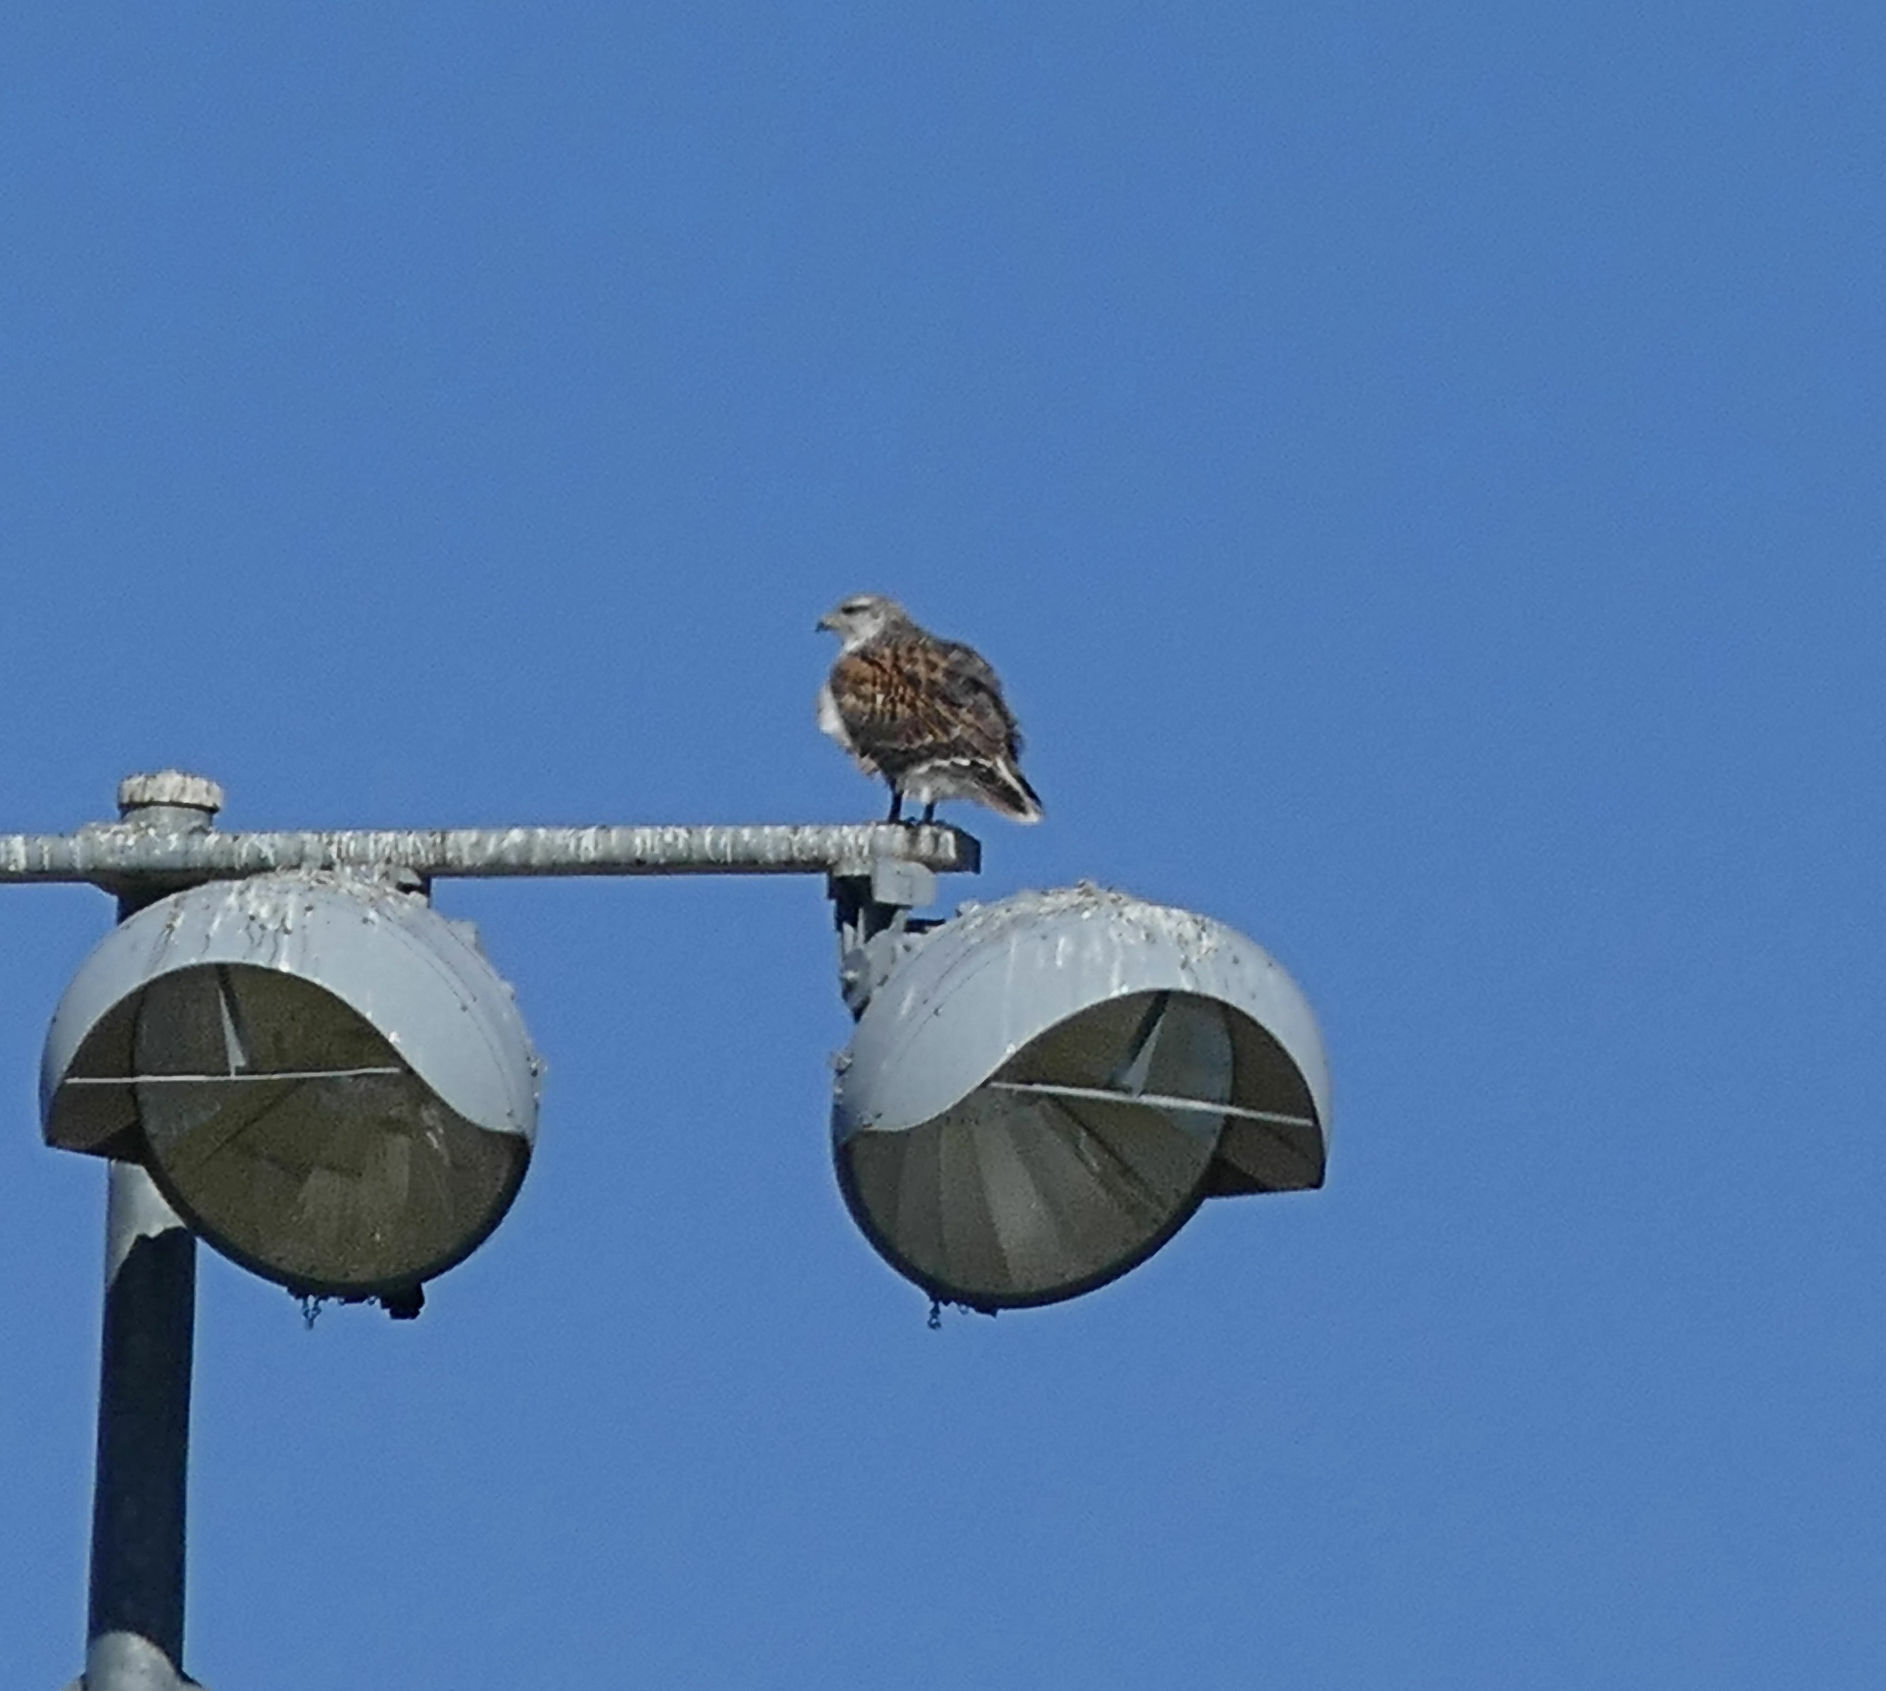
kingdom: Animalia
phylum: Chordata
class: Aves
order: Accipitriformes
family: Accipitridae
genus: Buteo
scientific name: Buteo regalis
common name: Ferruginous hawk
